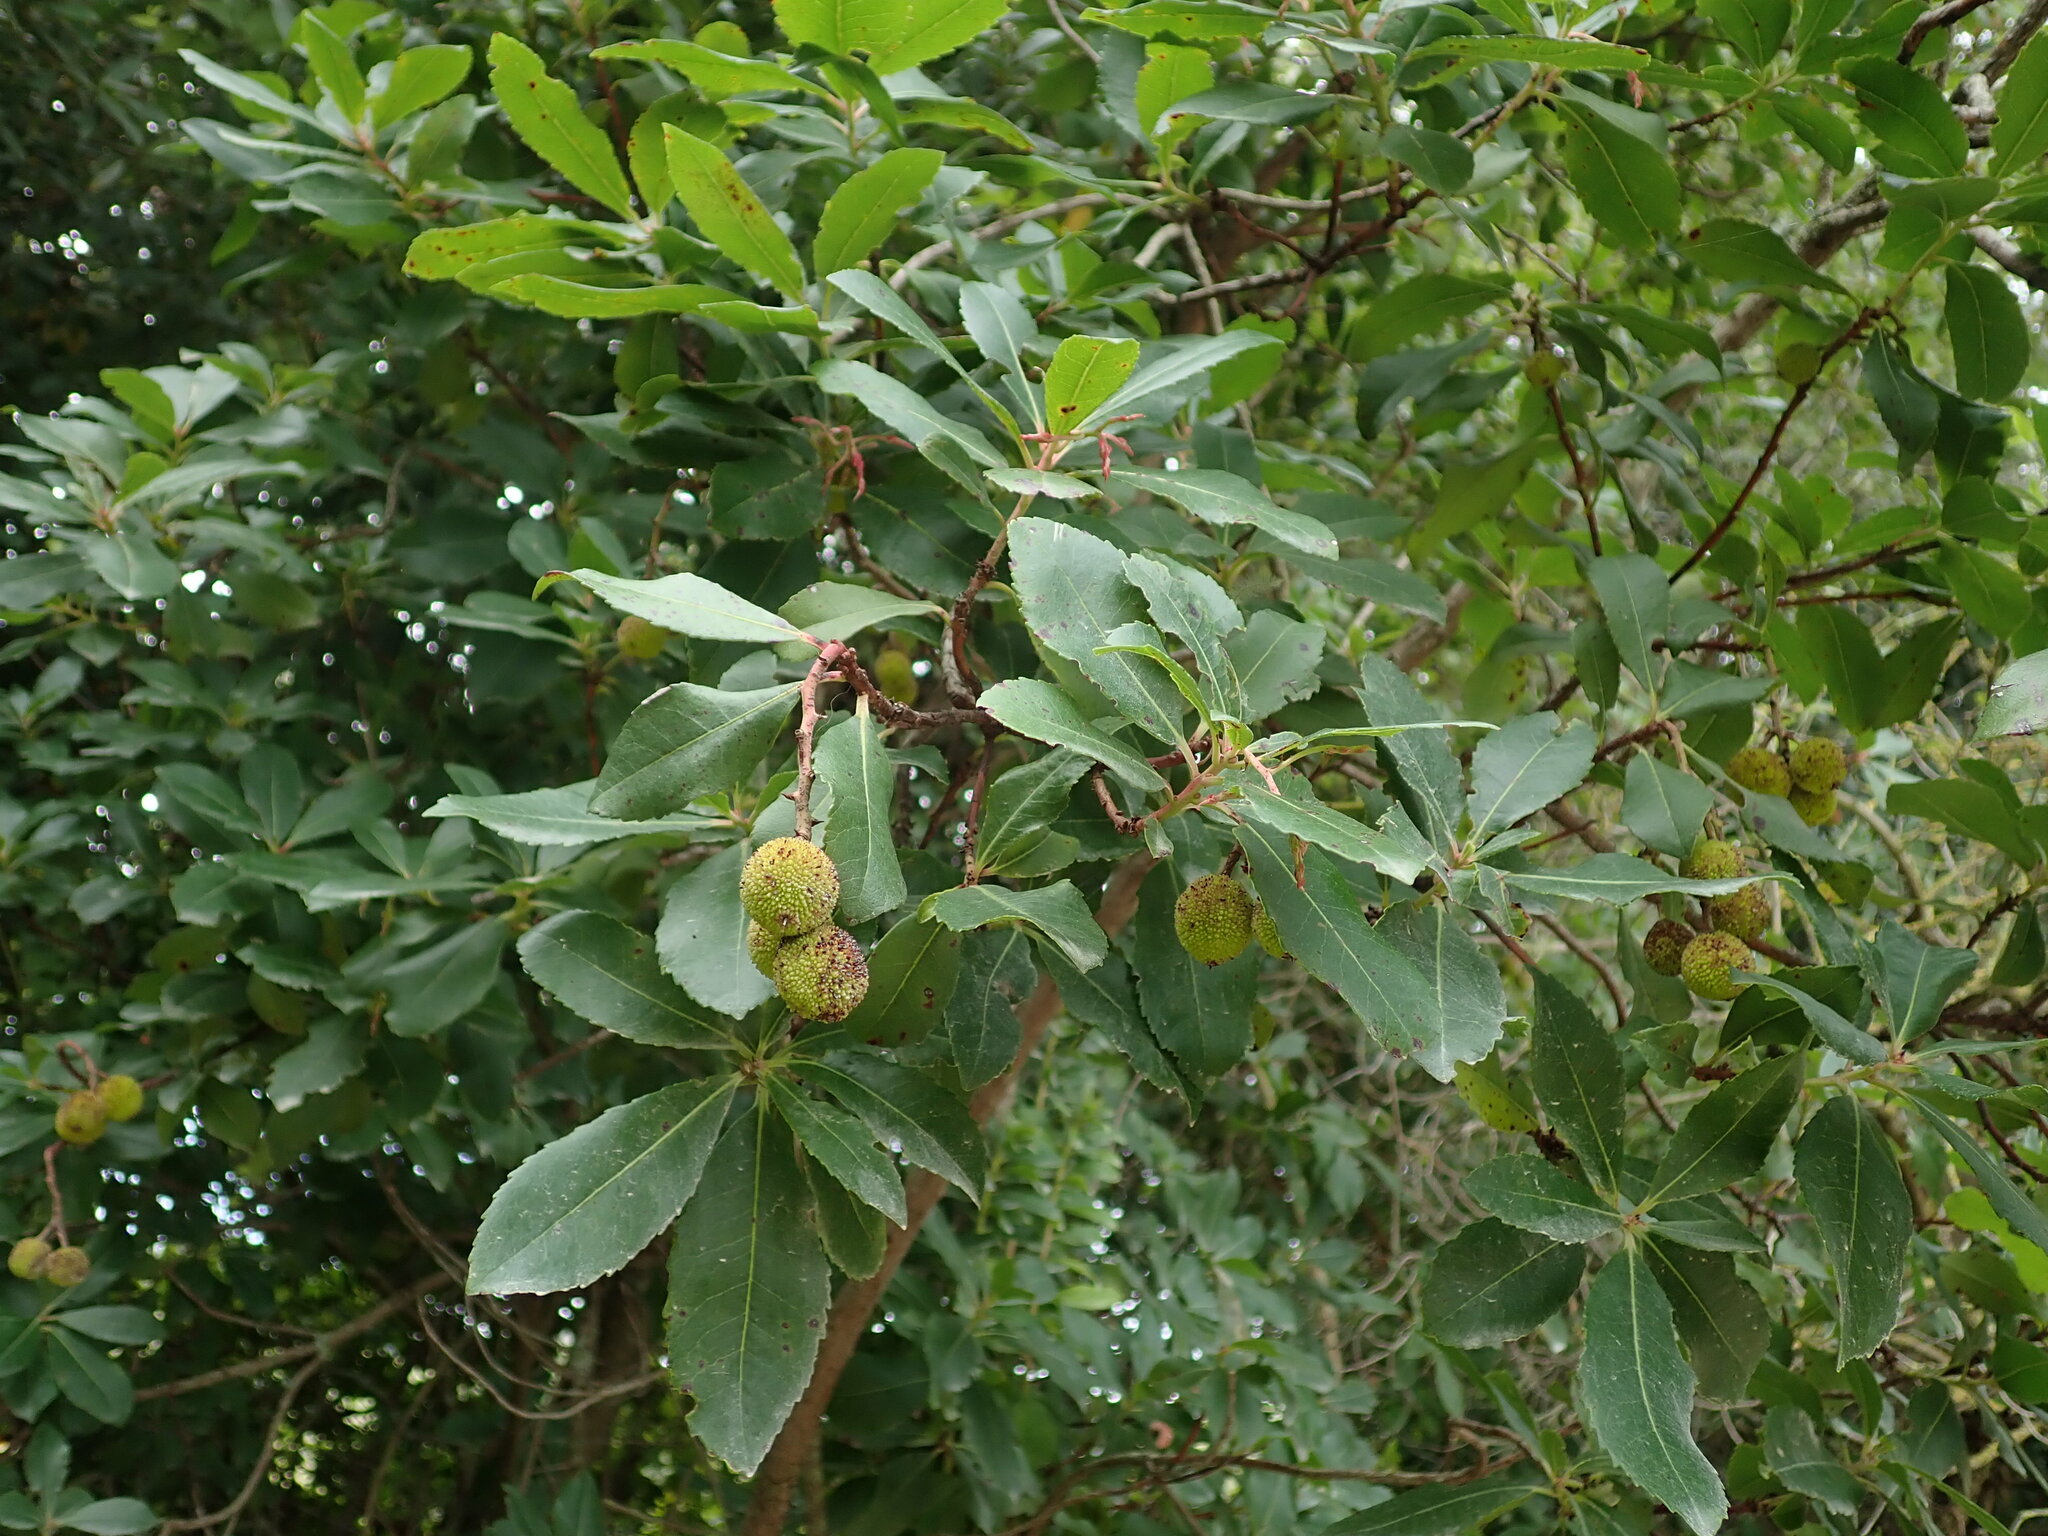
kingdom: Plantae
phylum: Tracheophyta
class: Magnoliopsida
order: Ericales
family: Ericaceae
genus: Arbutus
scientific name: Arbutus unedo
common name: Strawberry-tree
